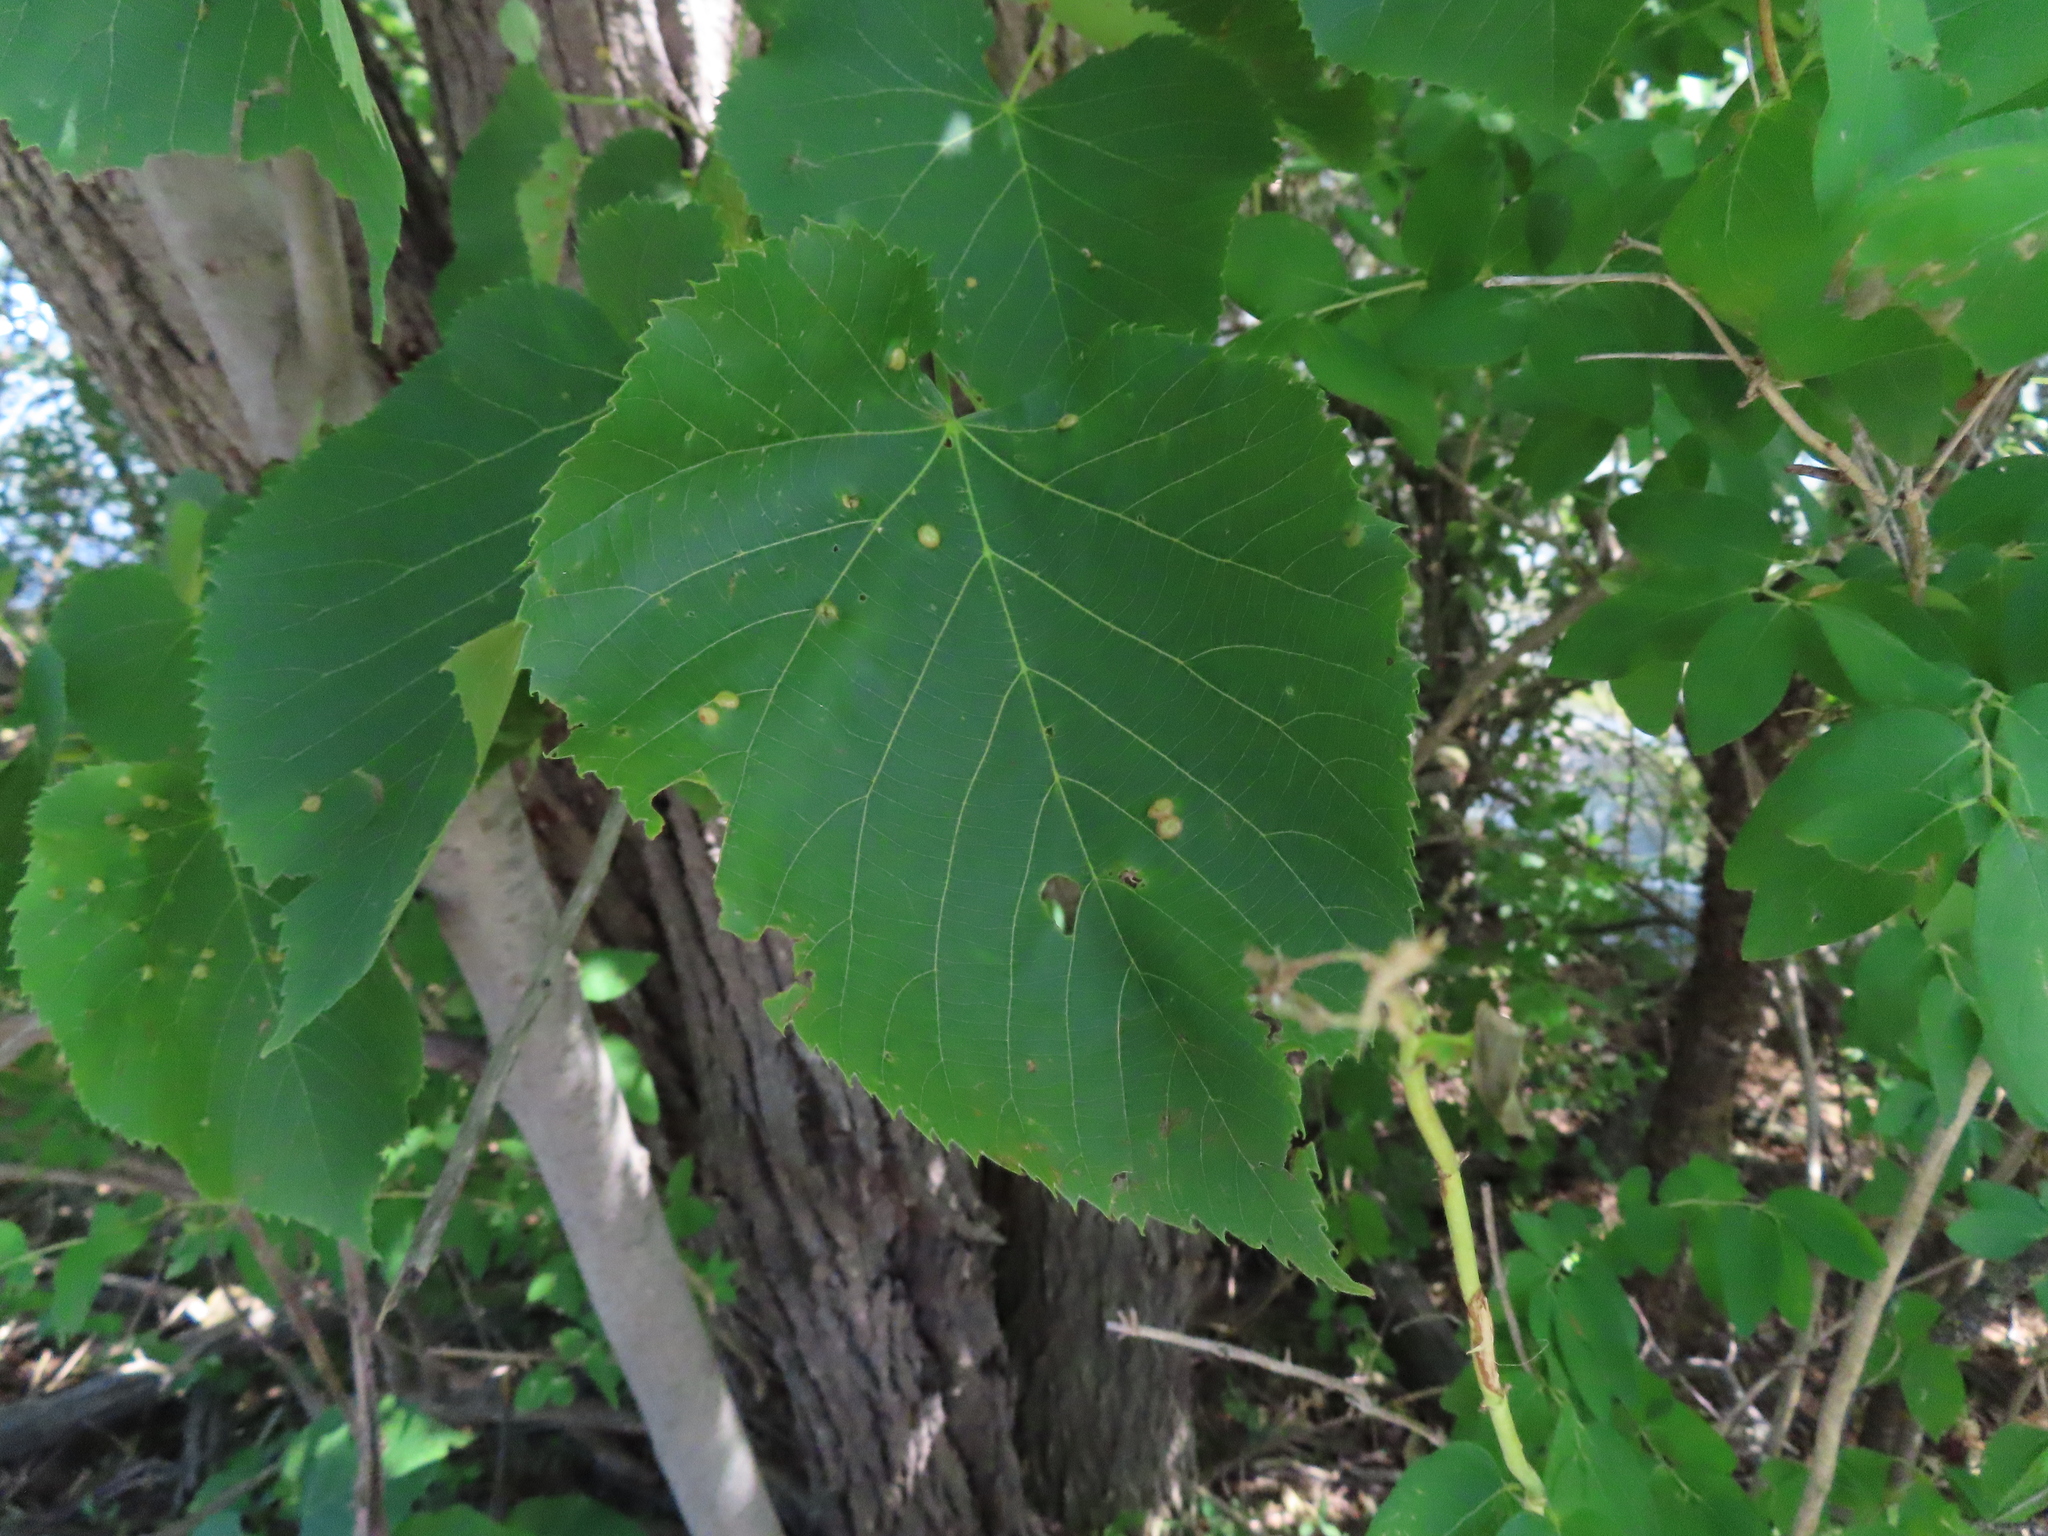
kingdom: Animalia
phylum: Arthropoda
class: Insecta
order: Diptera
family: Cecidomyiidae
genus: Contarinia
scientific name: Contarinia verrucicola
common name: Linden wart gall midge
